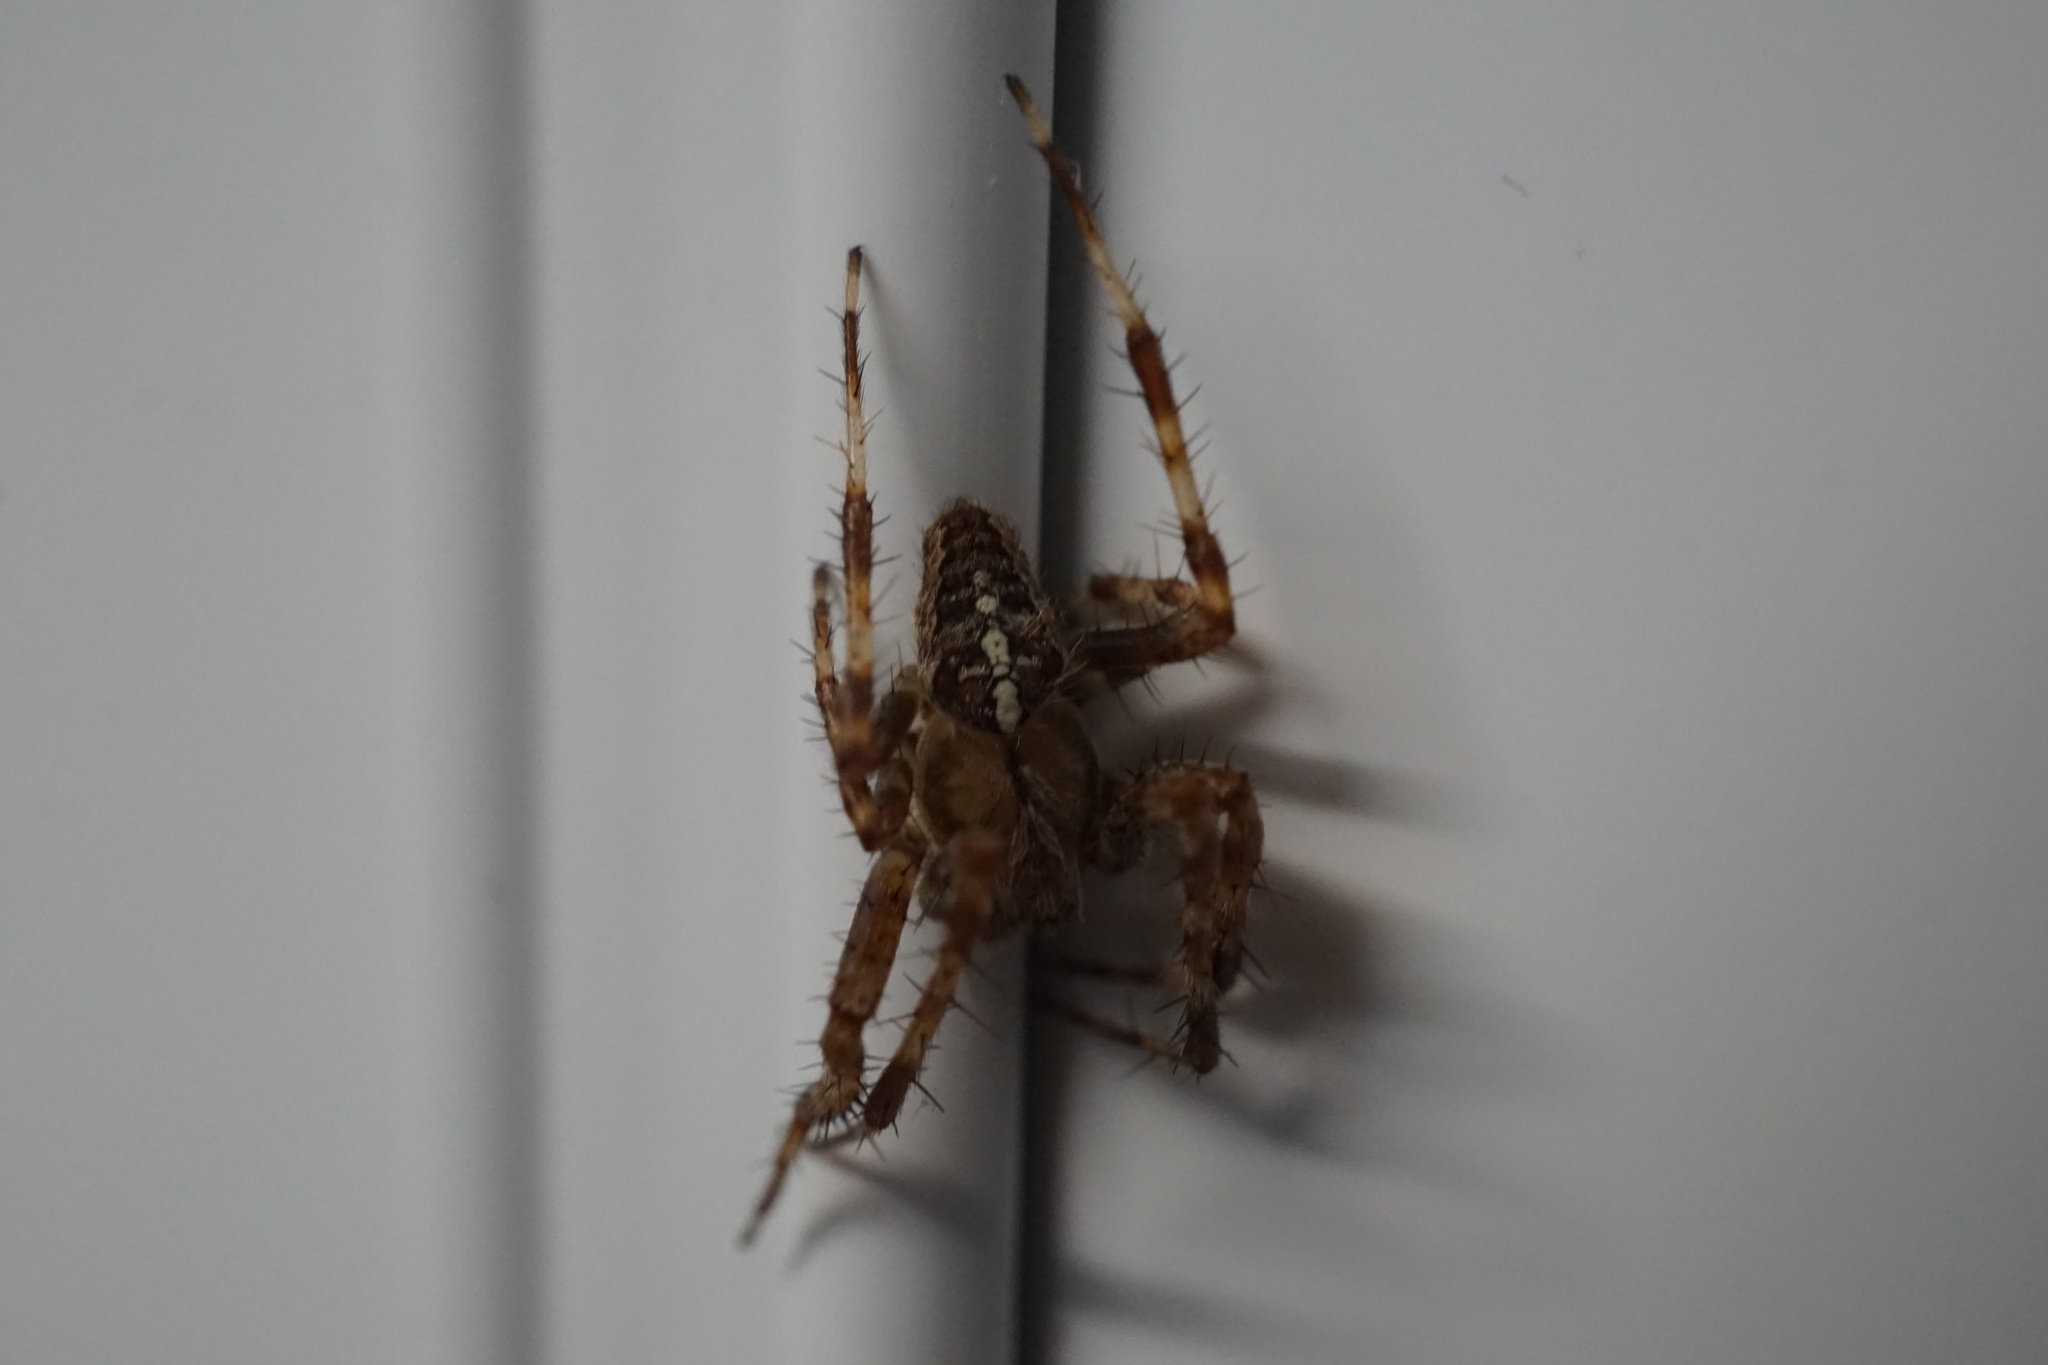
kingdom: Animalia
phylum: Arthropoda
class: Arachnida
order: Araneae
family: Araneidae
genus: Araneus
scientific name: Araneus diadematus
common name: Cross orbweaver
